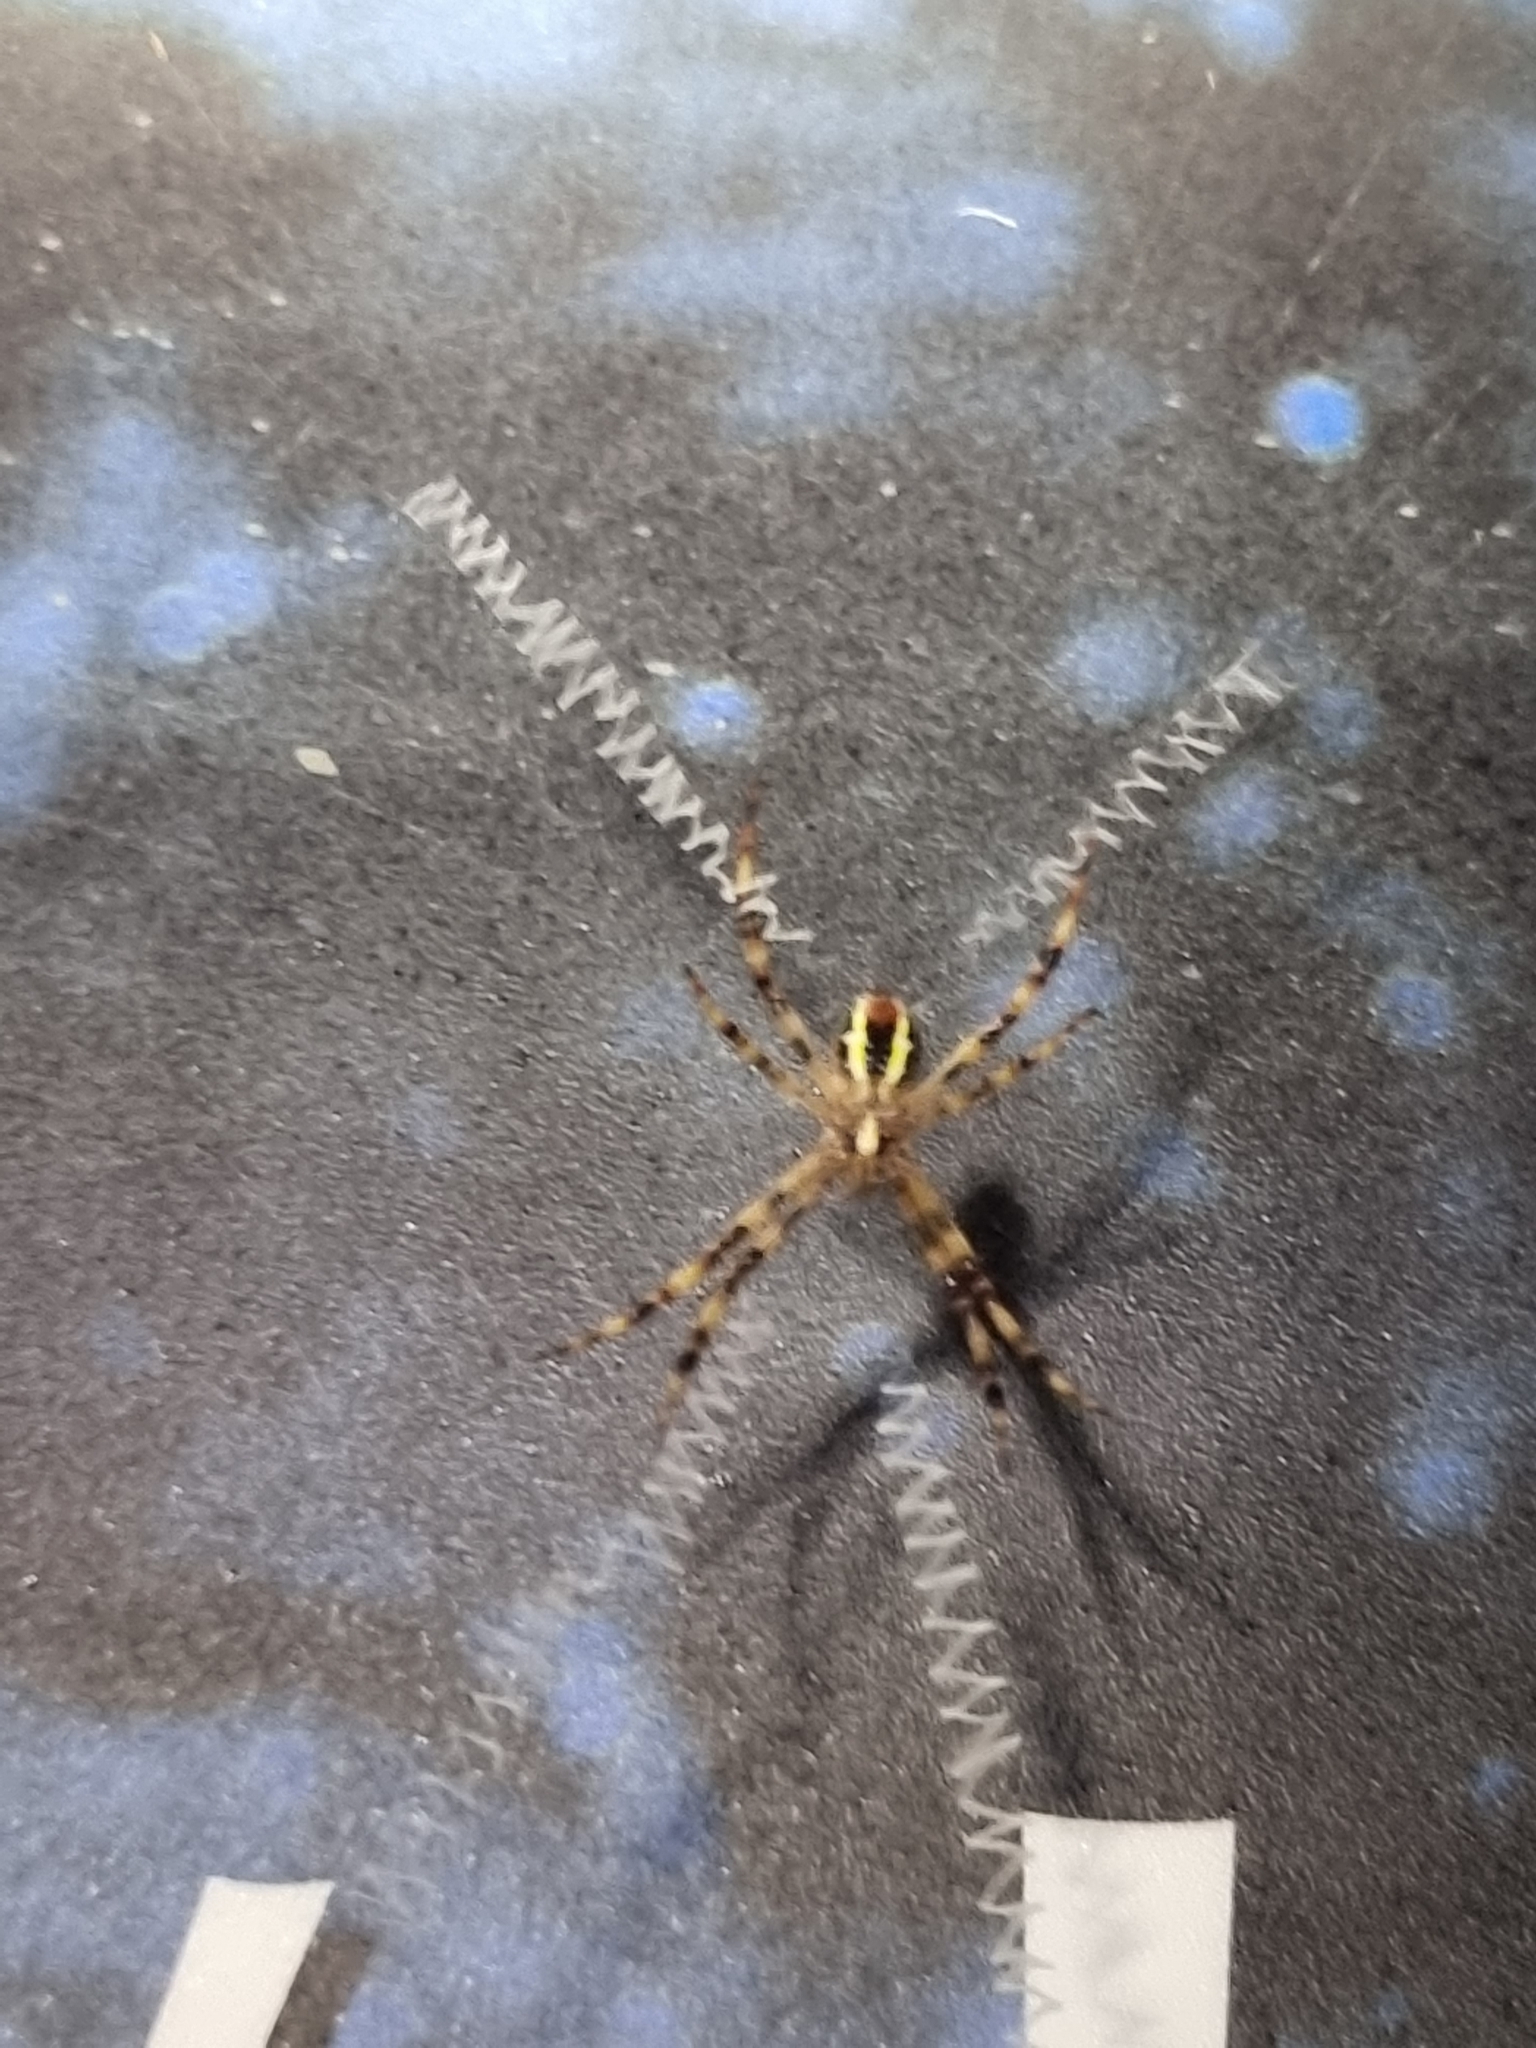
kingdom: Animalia
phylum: Arthropoda
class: Arachnida
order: Araneae
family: Araneidae
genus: Argiope
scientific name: Argiope picta
